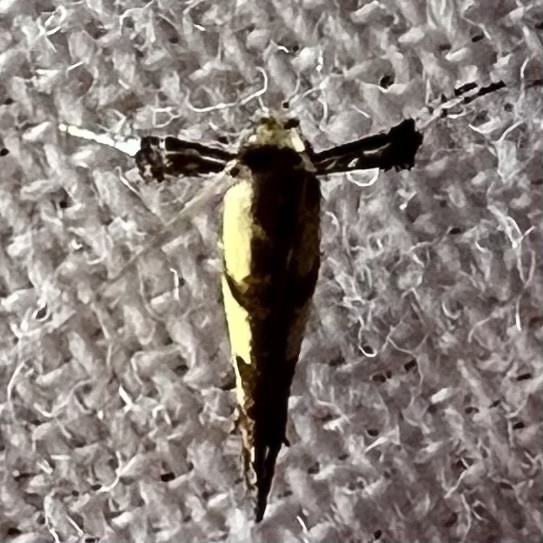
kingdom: Animalia
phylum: Arthropoda
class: Insecta
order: Lepidoptera
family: Gracillariidae
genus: Caloptilia
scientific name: Caloptilia blandella
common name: Walnut caloptilia moth
